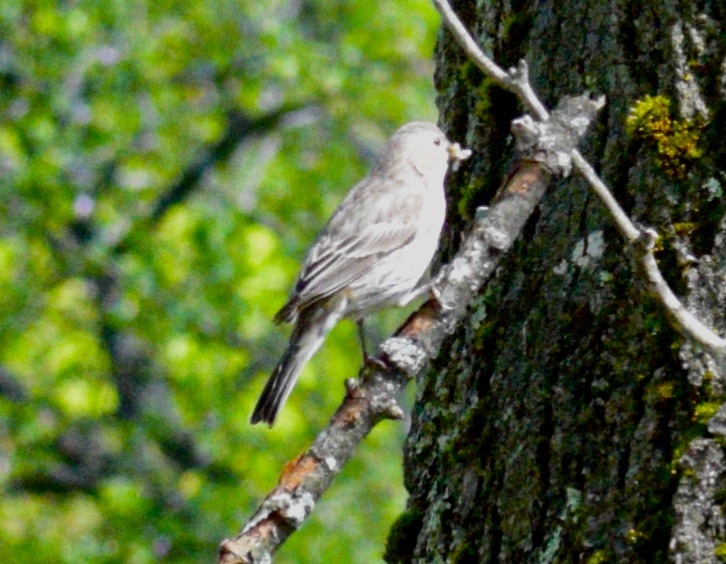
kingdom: Animalia
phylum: Chordata
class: Aves
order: Passeriformes
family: Fringillidae
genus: Haemorhous
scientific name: Haemorhous mexicanus
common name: House finch
